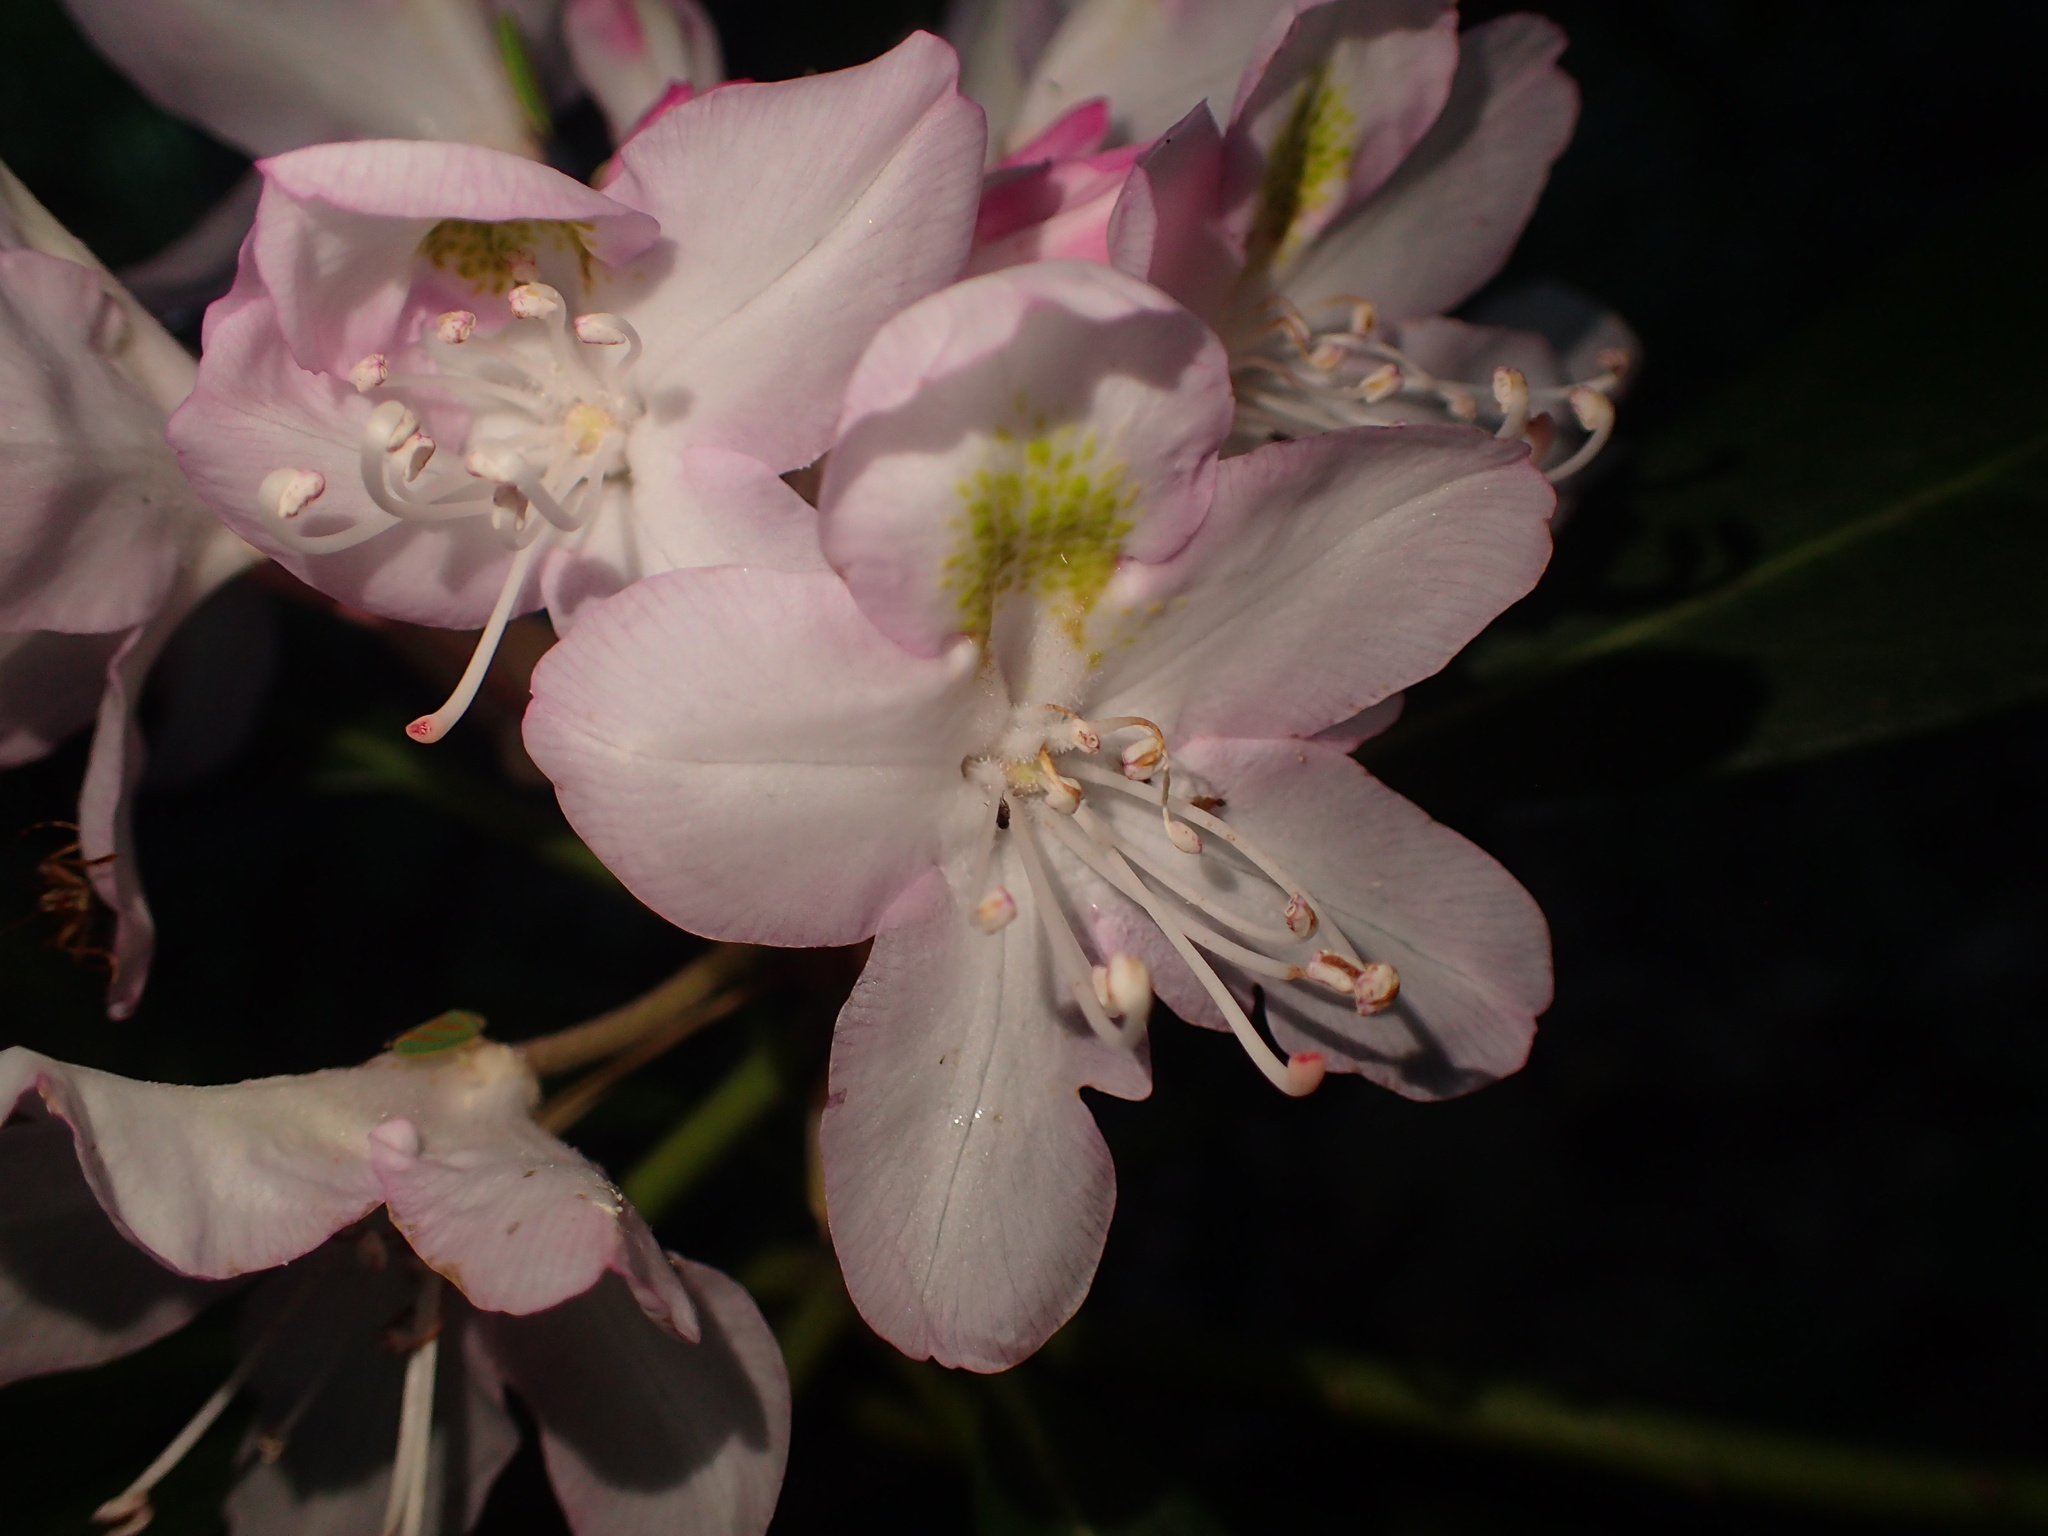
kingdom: Plantae
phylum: Tracheophyta
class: Magnoliopsida
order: Ericales
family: Ericaceae
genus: Rhododendron
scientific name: Rhododendron maximum
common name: Great rhododendron
